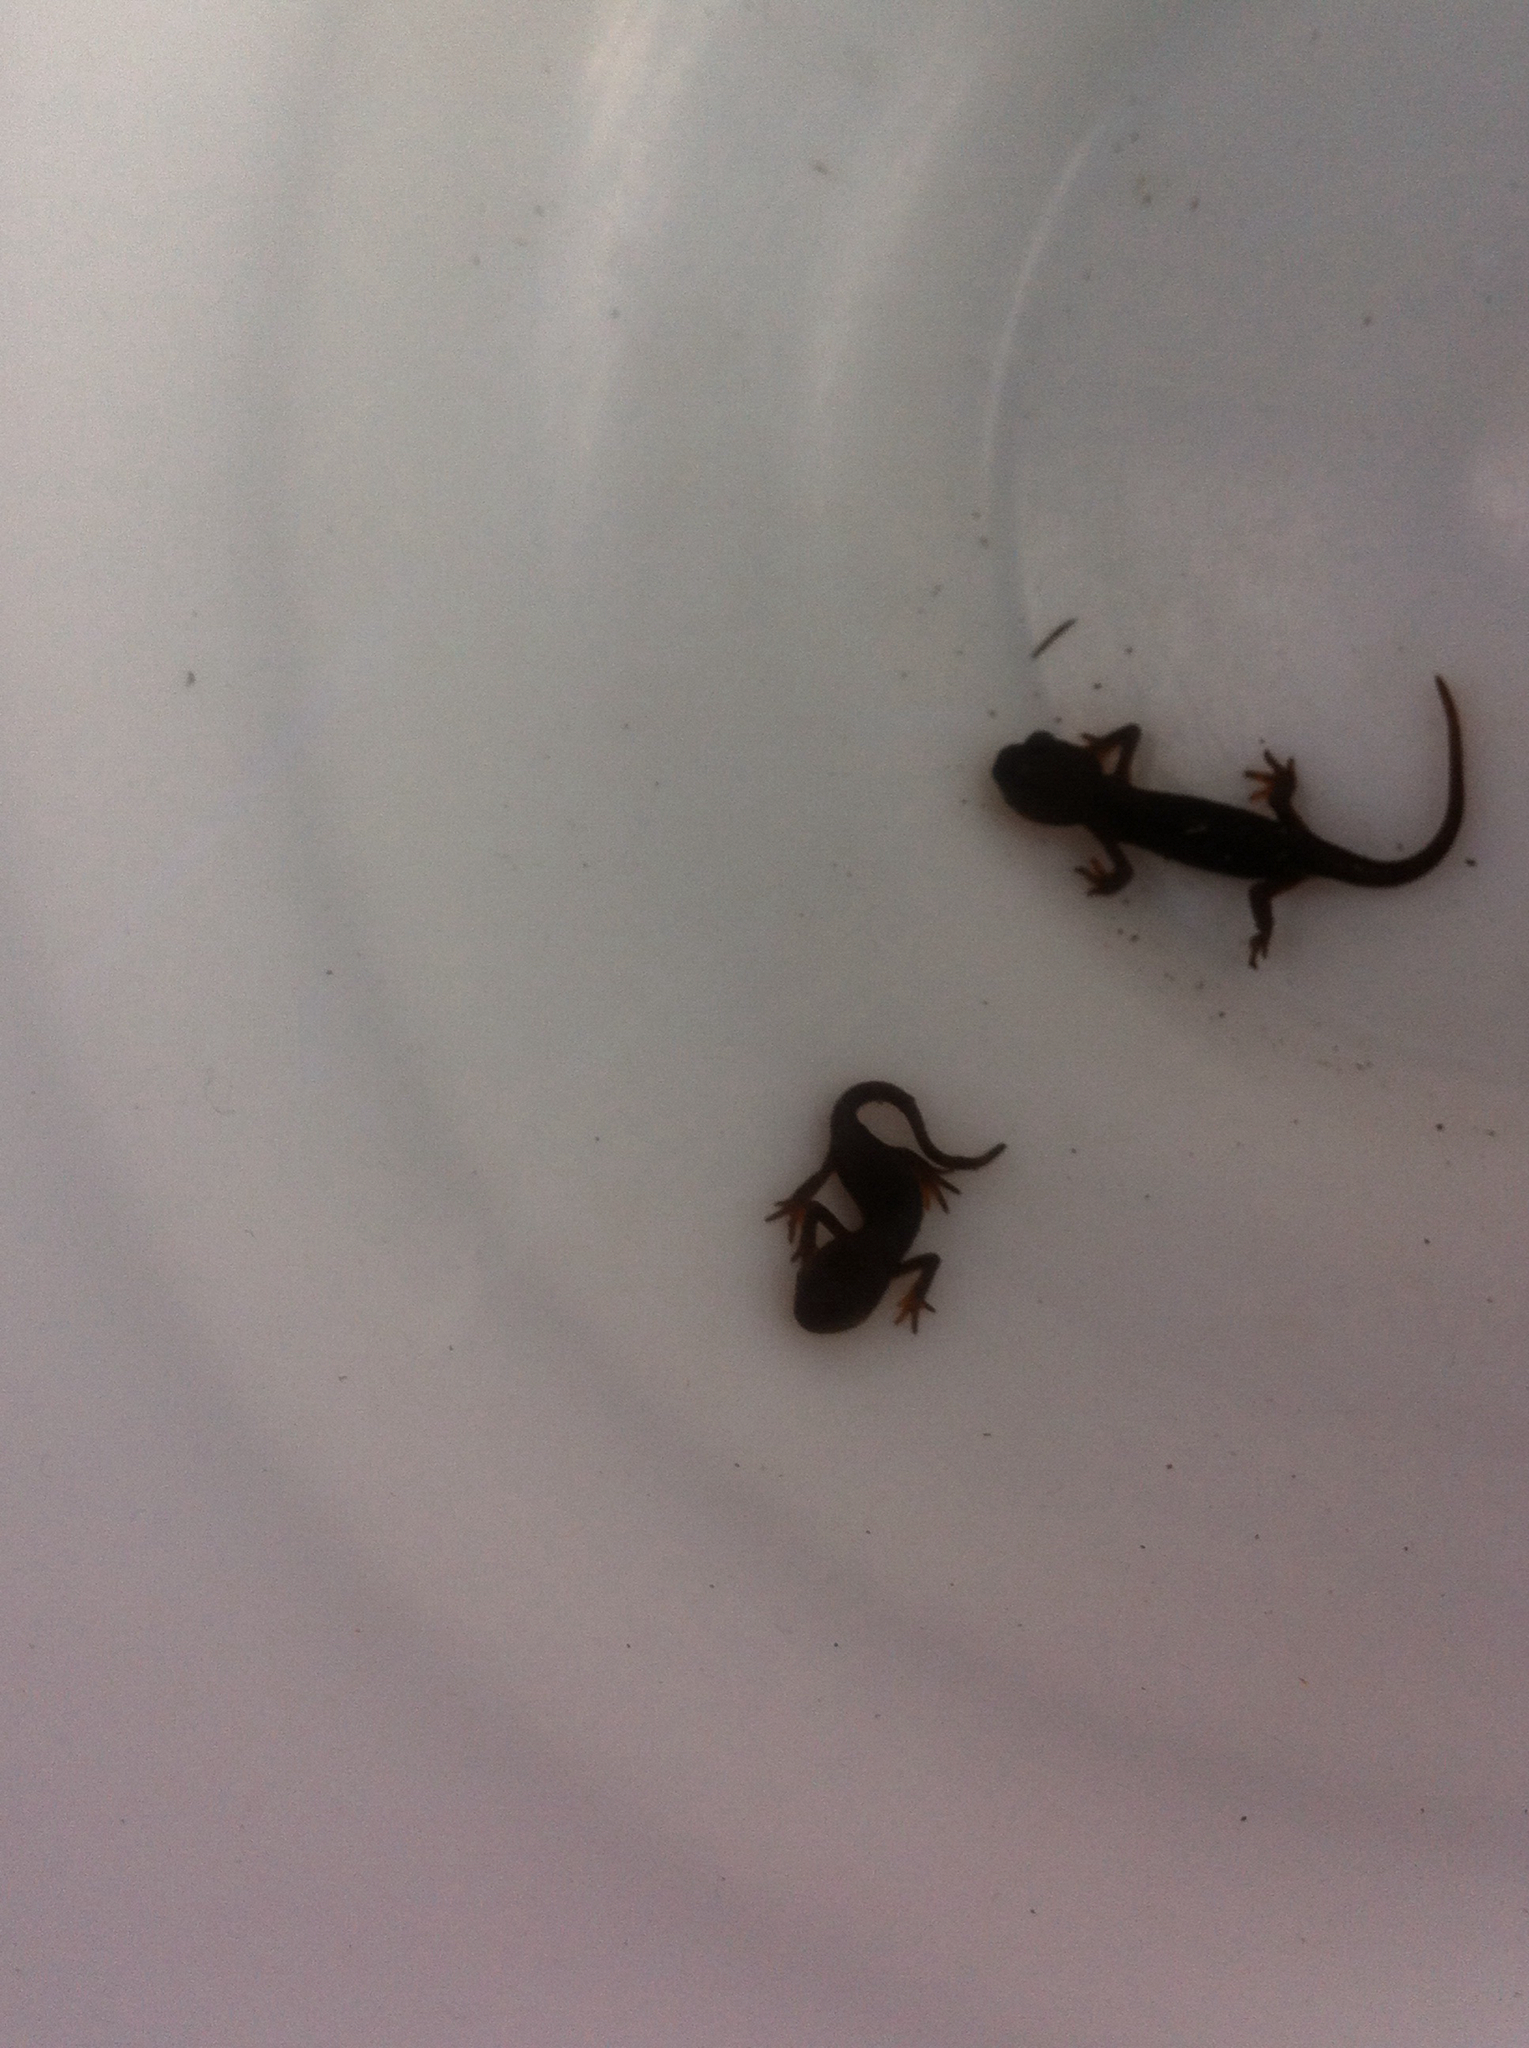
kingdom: Animalia
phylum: Chordata
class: Amphibia
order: Caudata
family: Salamandridae
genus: Taricha
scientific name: Taricha
